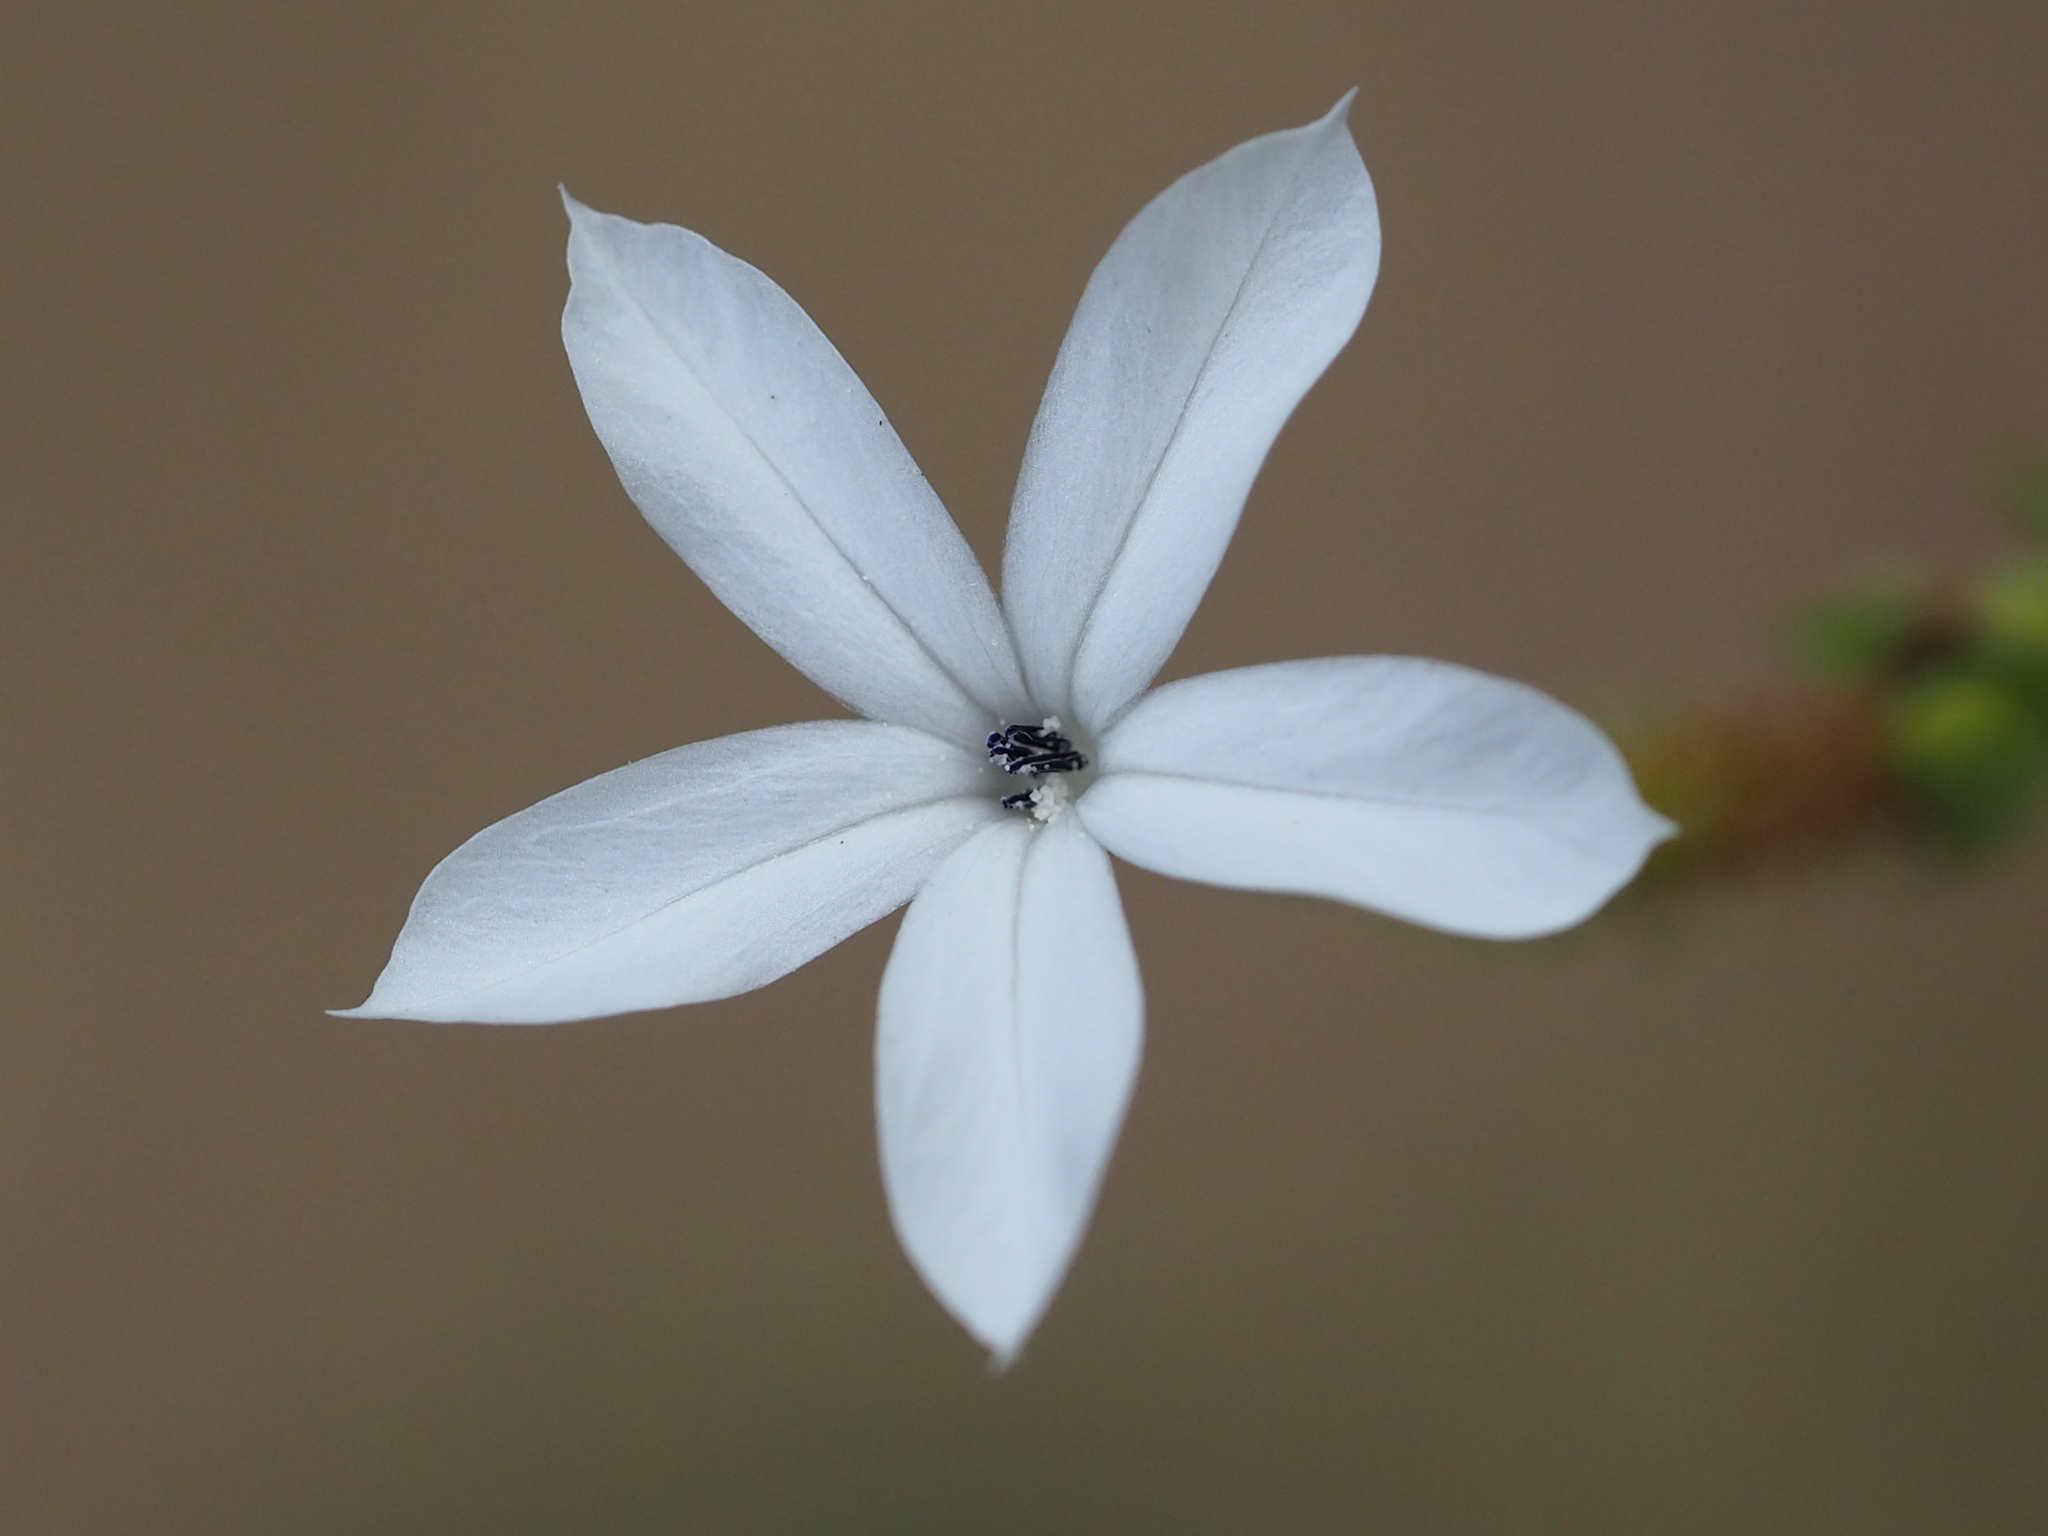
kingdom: Plantae
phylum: Tracheophyta
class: Magnoliopsida
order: Caryophyllales
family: Plumbaginaceae
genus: Plumbago
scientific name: Plumbago zeylanica
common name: Doctorbush
